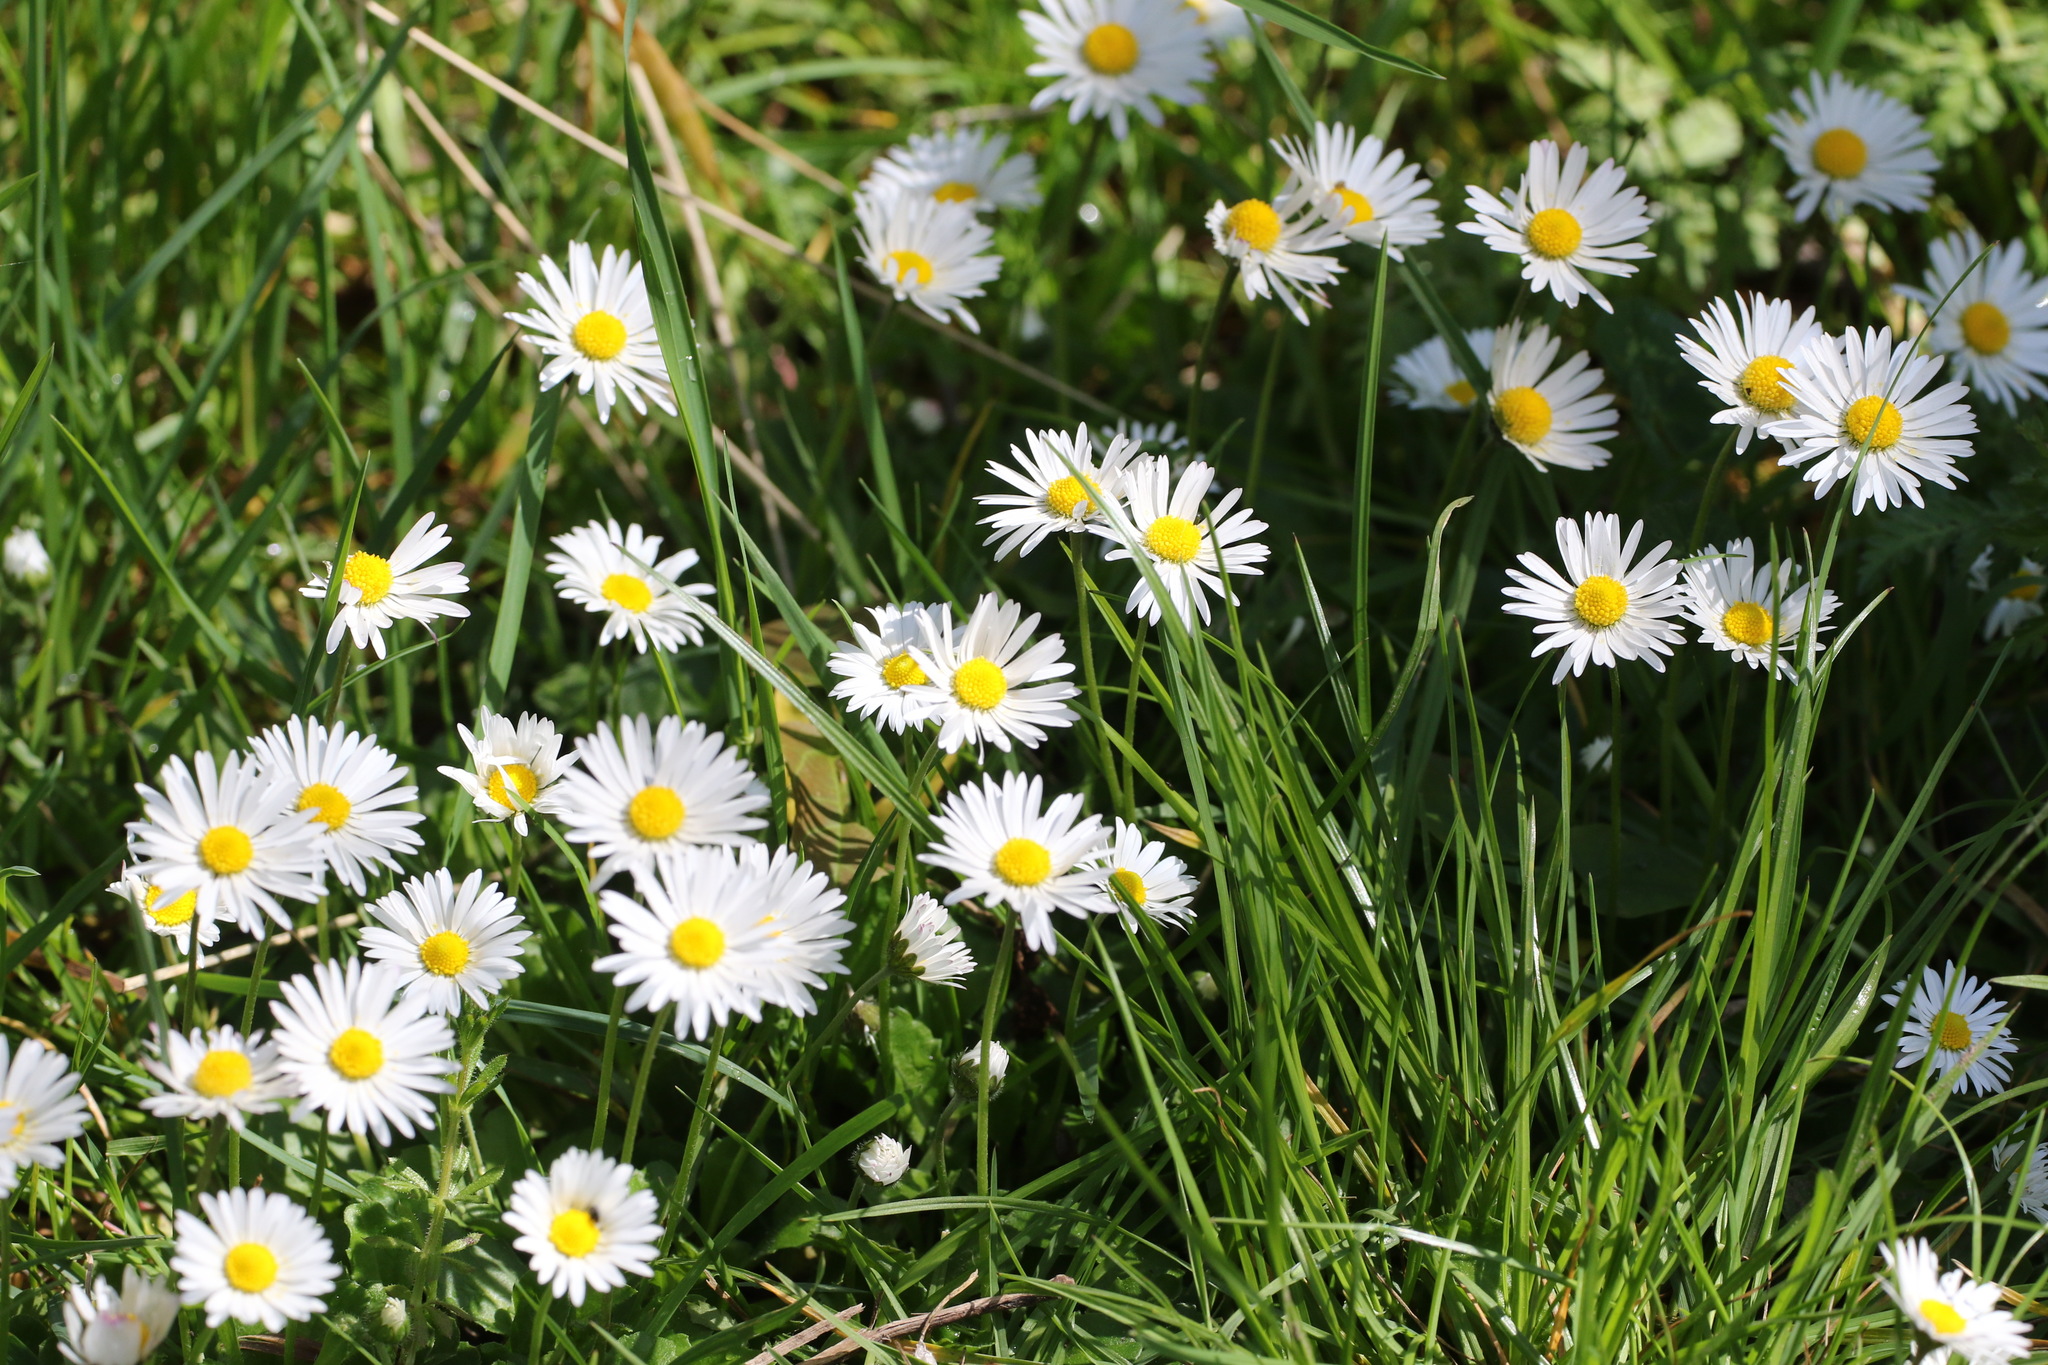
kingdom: Plantae
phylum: Tracheophyta
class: Magnoliopsida
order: Asterales
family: Asteraceae
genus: Bellis
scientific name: Bellis perennis
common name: Lawndaisy
